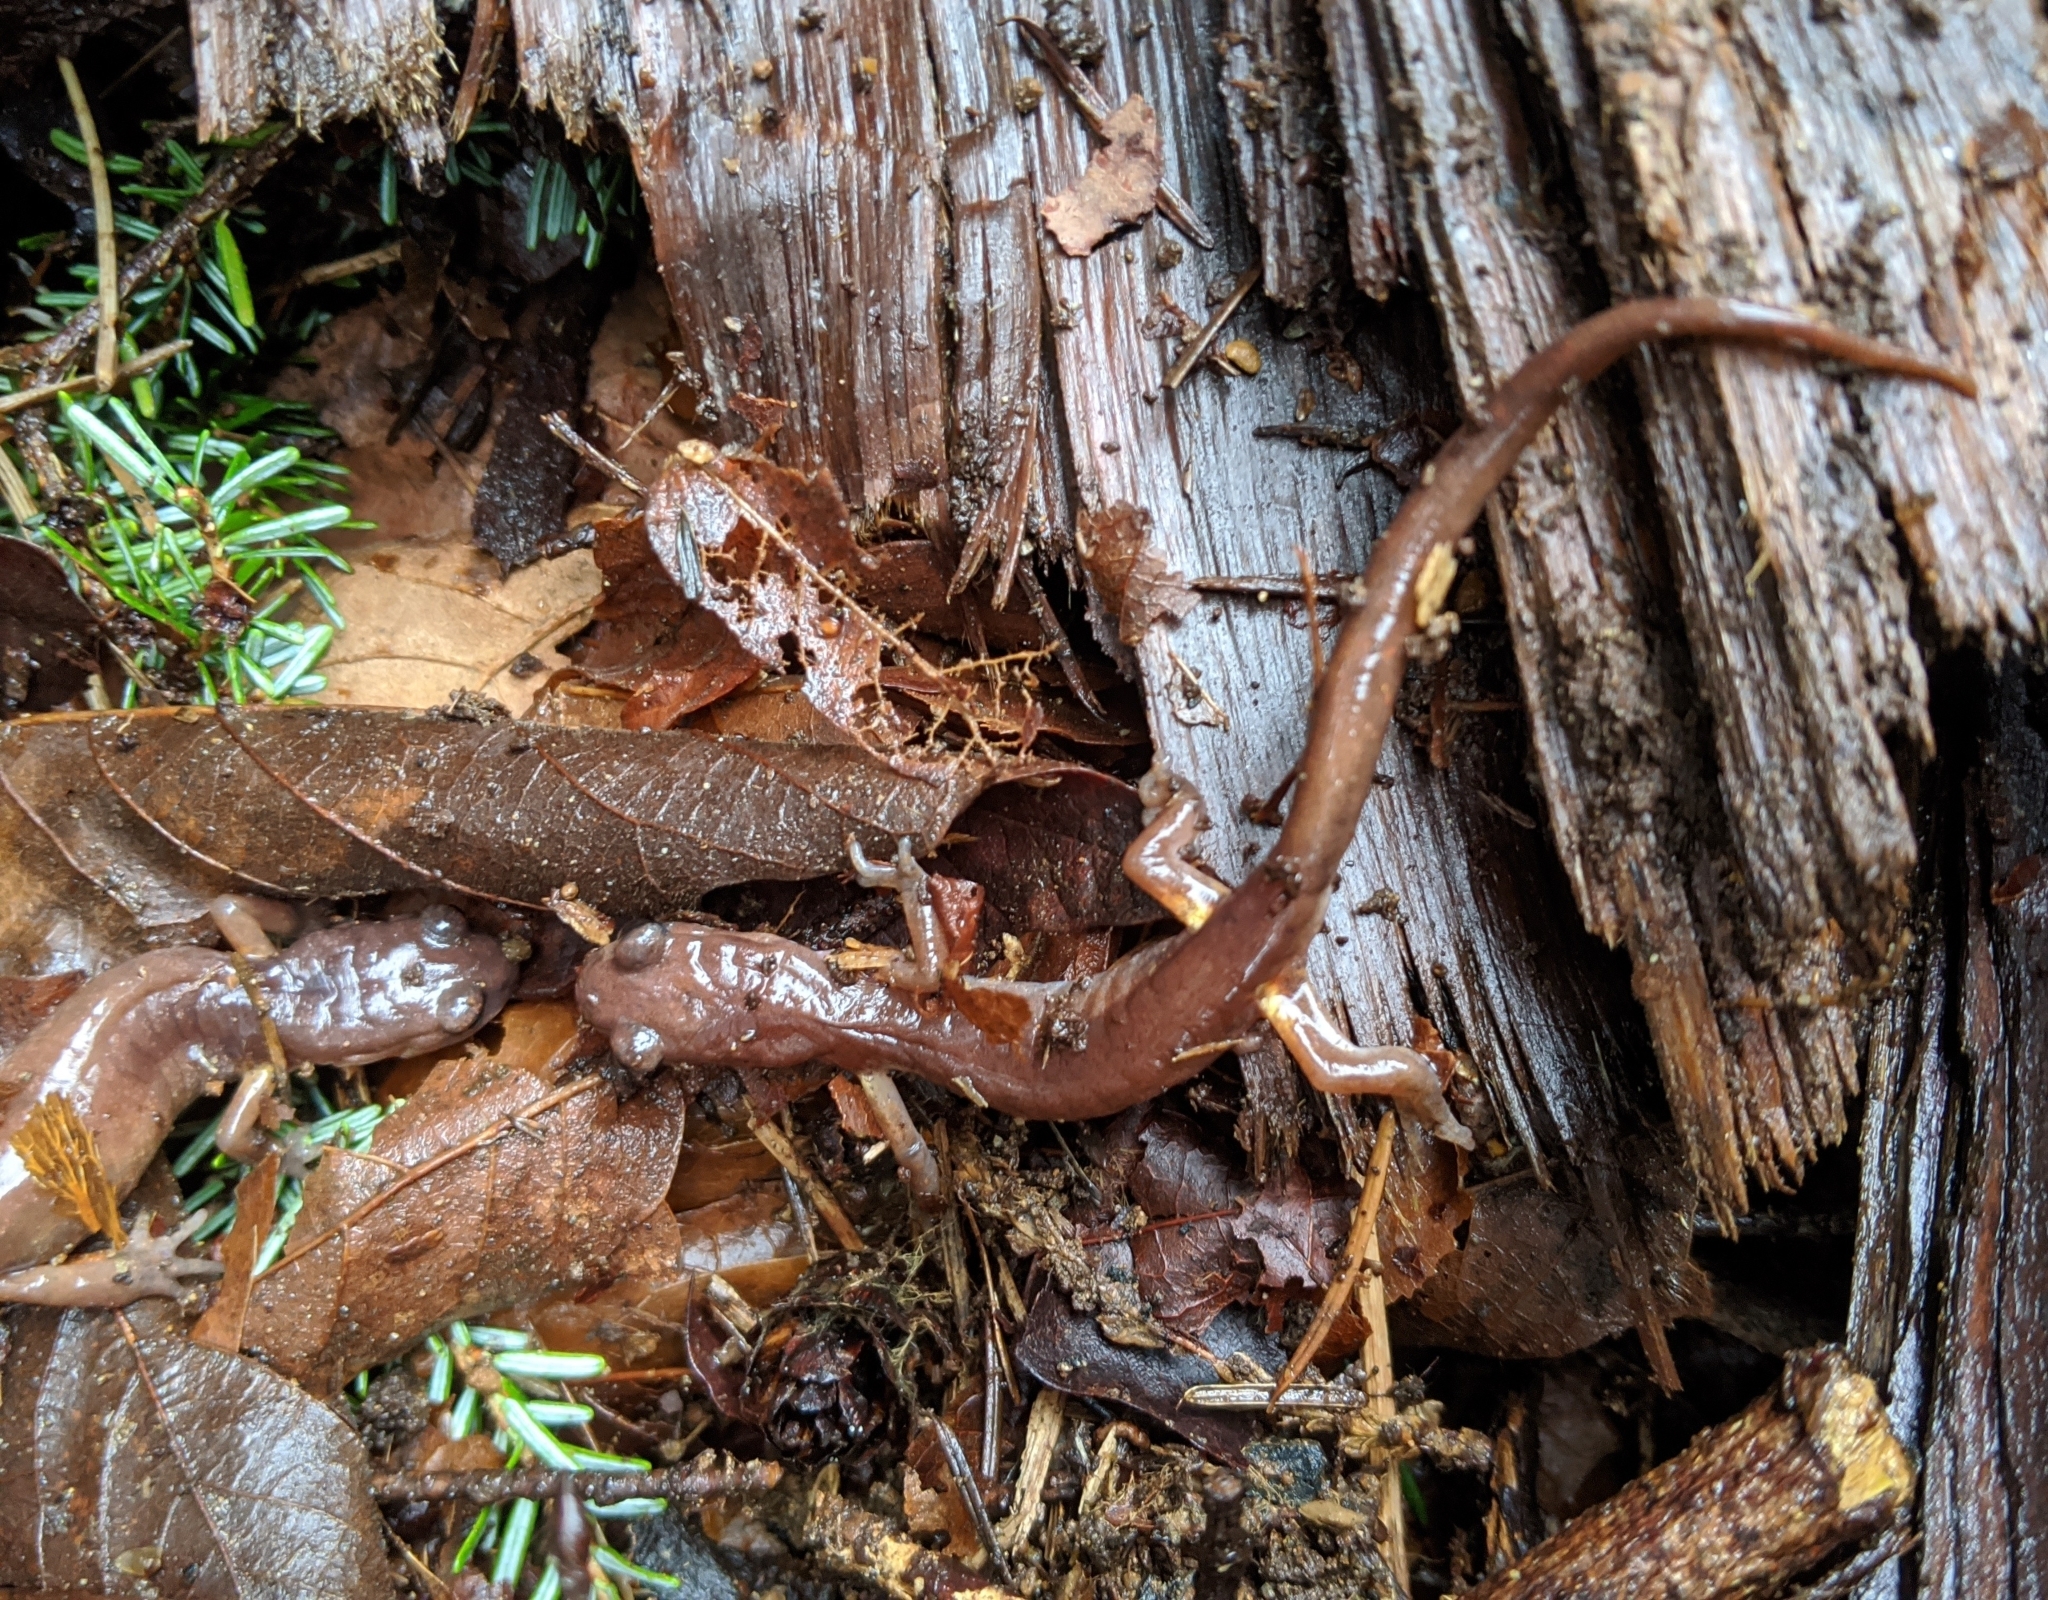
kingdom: Animalia
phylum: Chordata
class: Amphibia
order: Caudata
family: Plethodontidae
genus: Ensatina
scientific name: Ensatina eschscholtzii
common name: Ensatina
